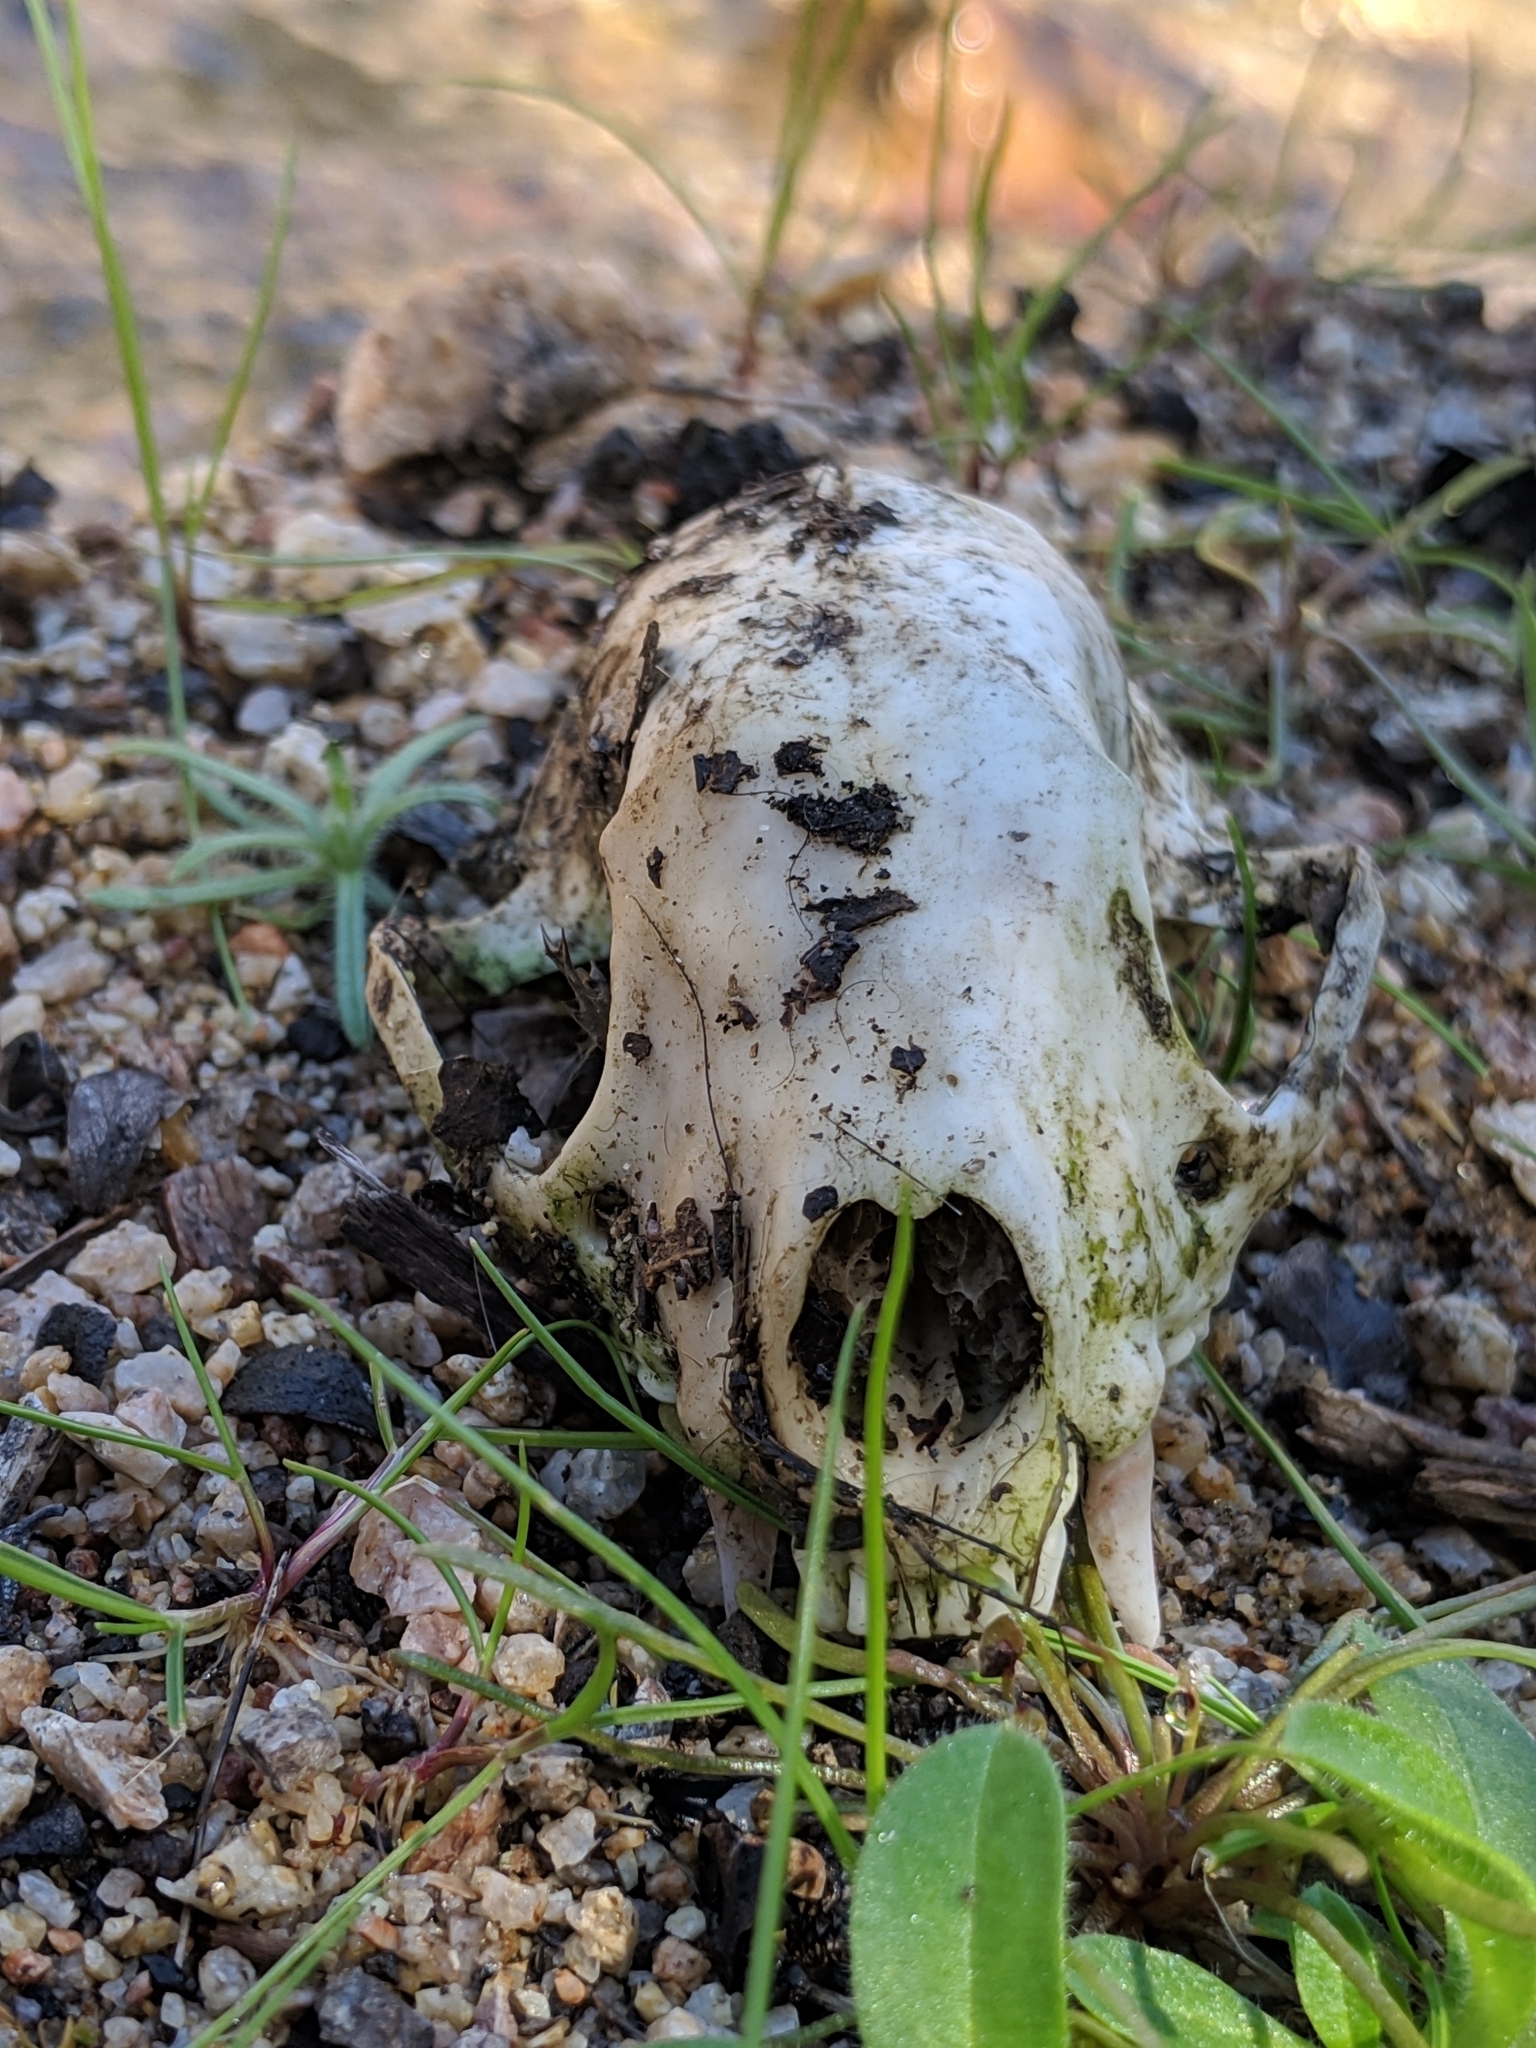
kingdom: Animalia
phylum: Chordata
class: Mammalia
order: Carnivora
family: Mephitidae
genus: Mephitis
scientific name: Mephitis mephitis
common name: Striped skunk
